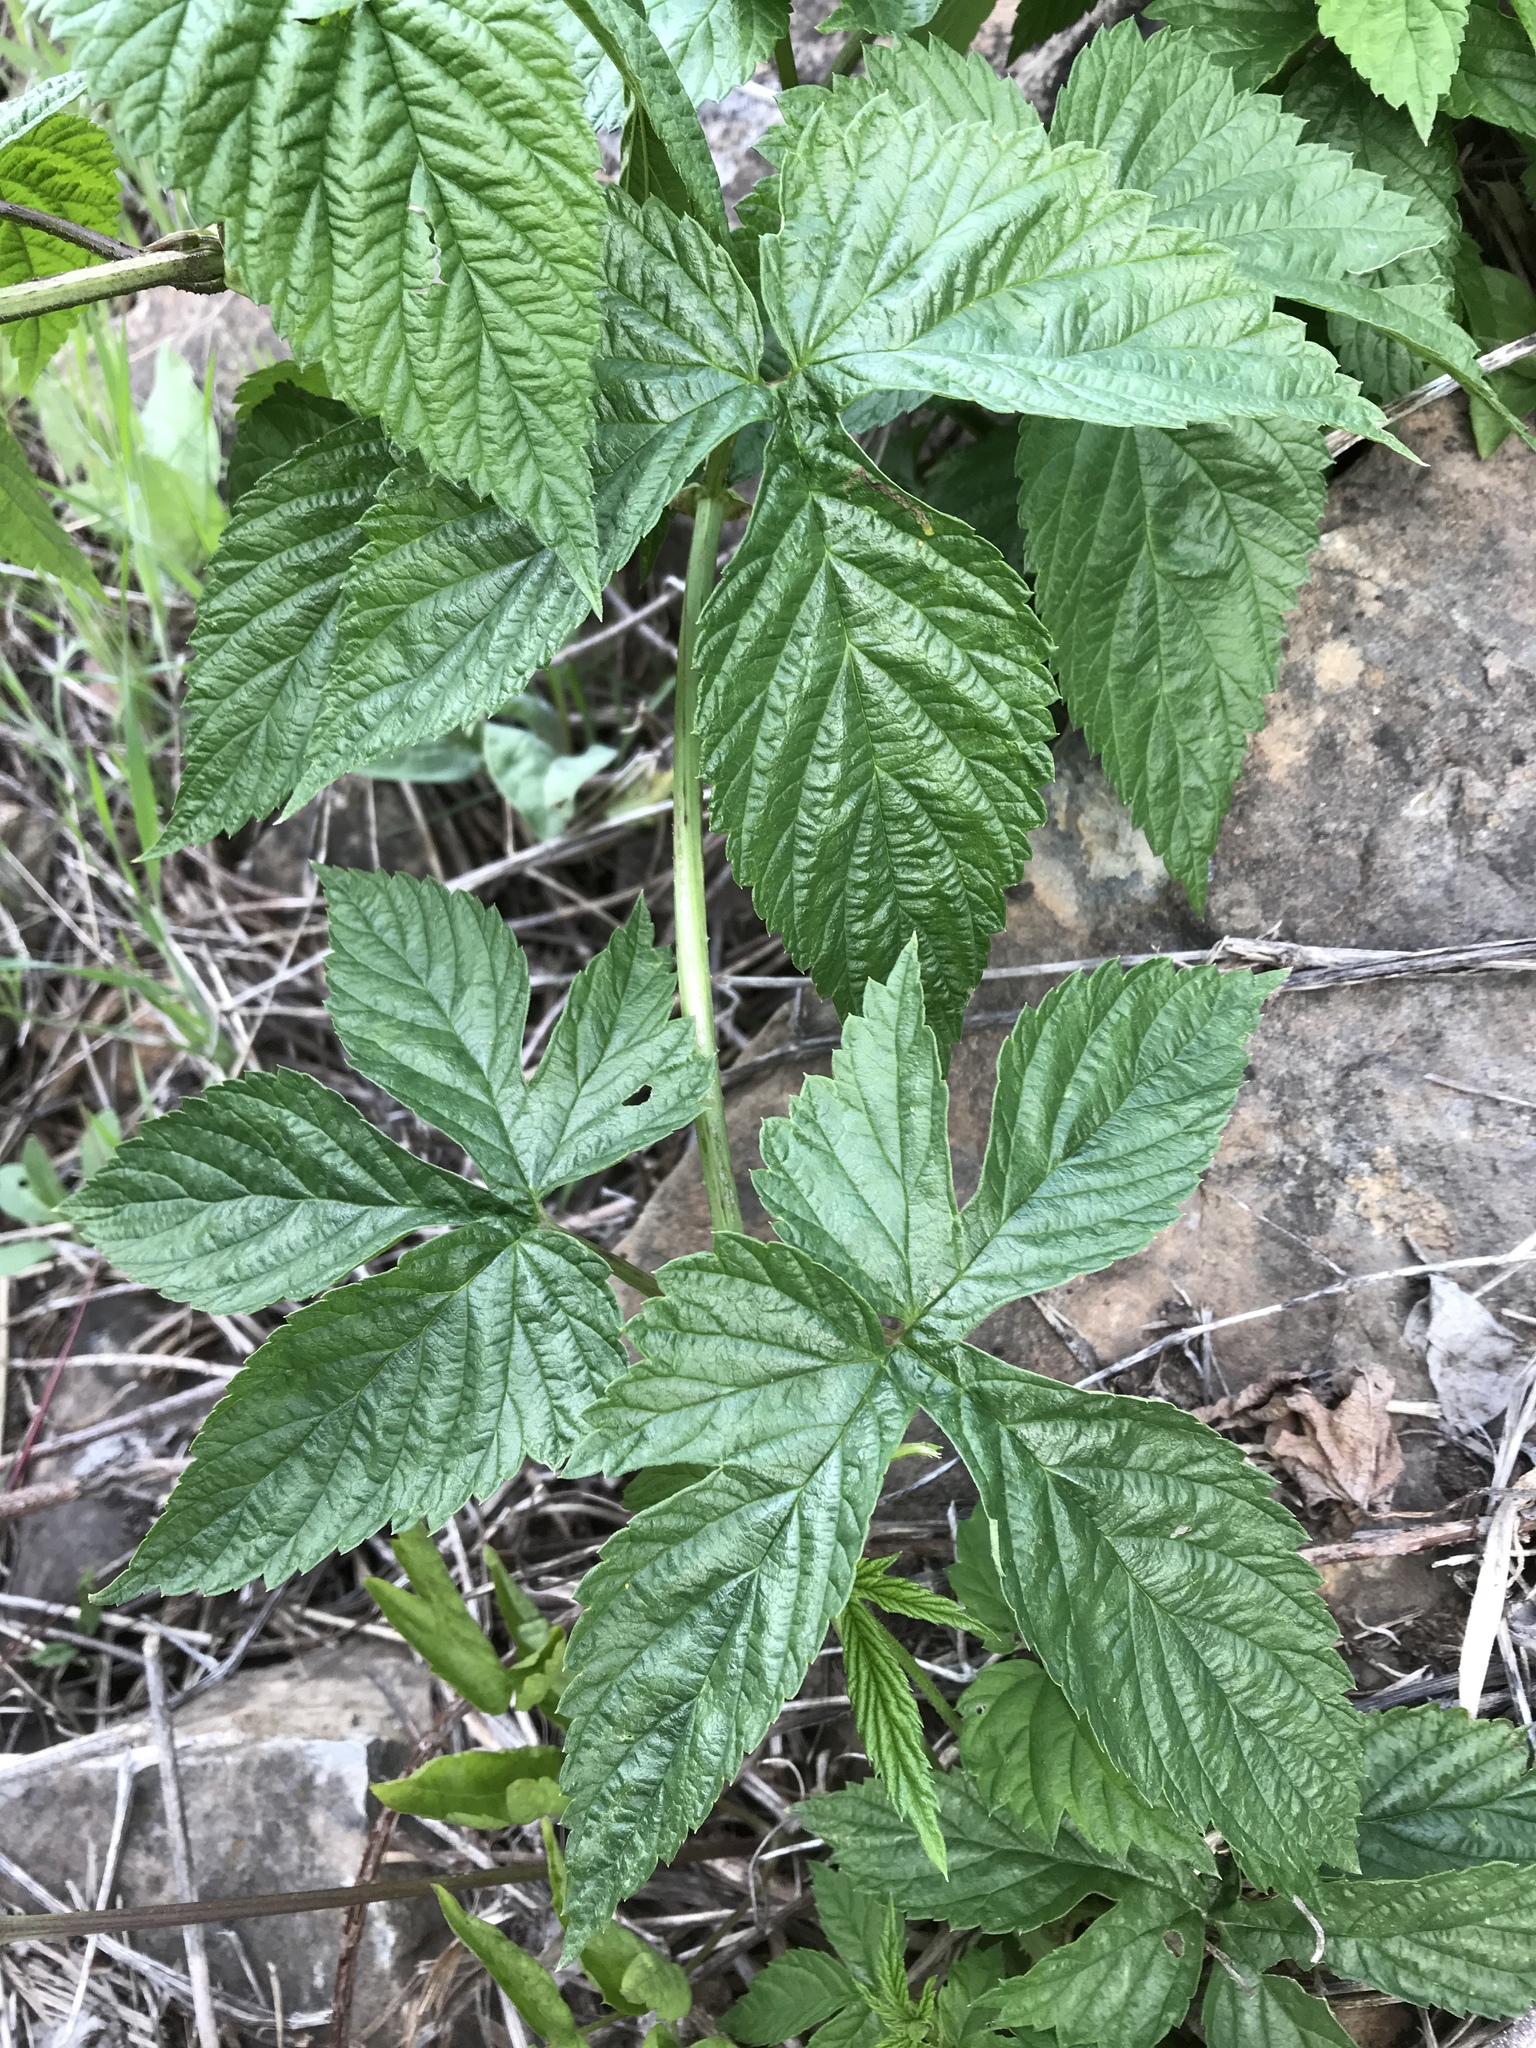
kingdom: Plantae
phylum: Tracheophyta
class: Magnoliopsida
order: Rosales
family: Cannabaceae
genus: Humulus
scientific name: Humulus lupulus
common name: Hop
